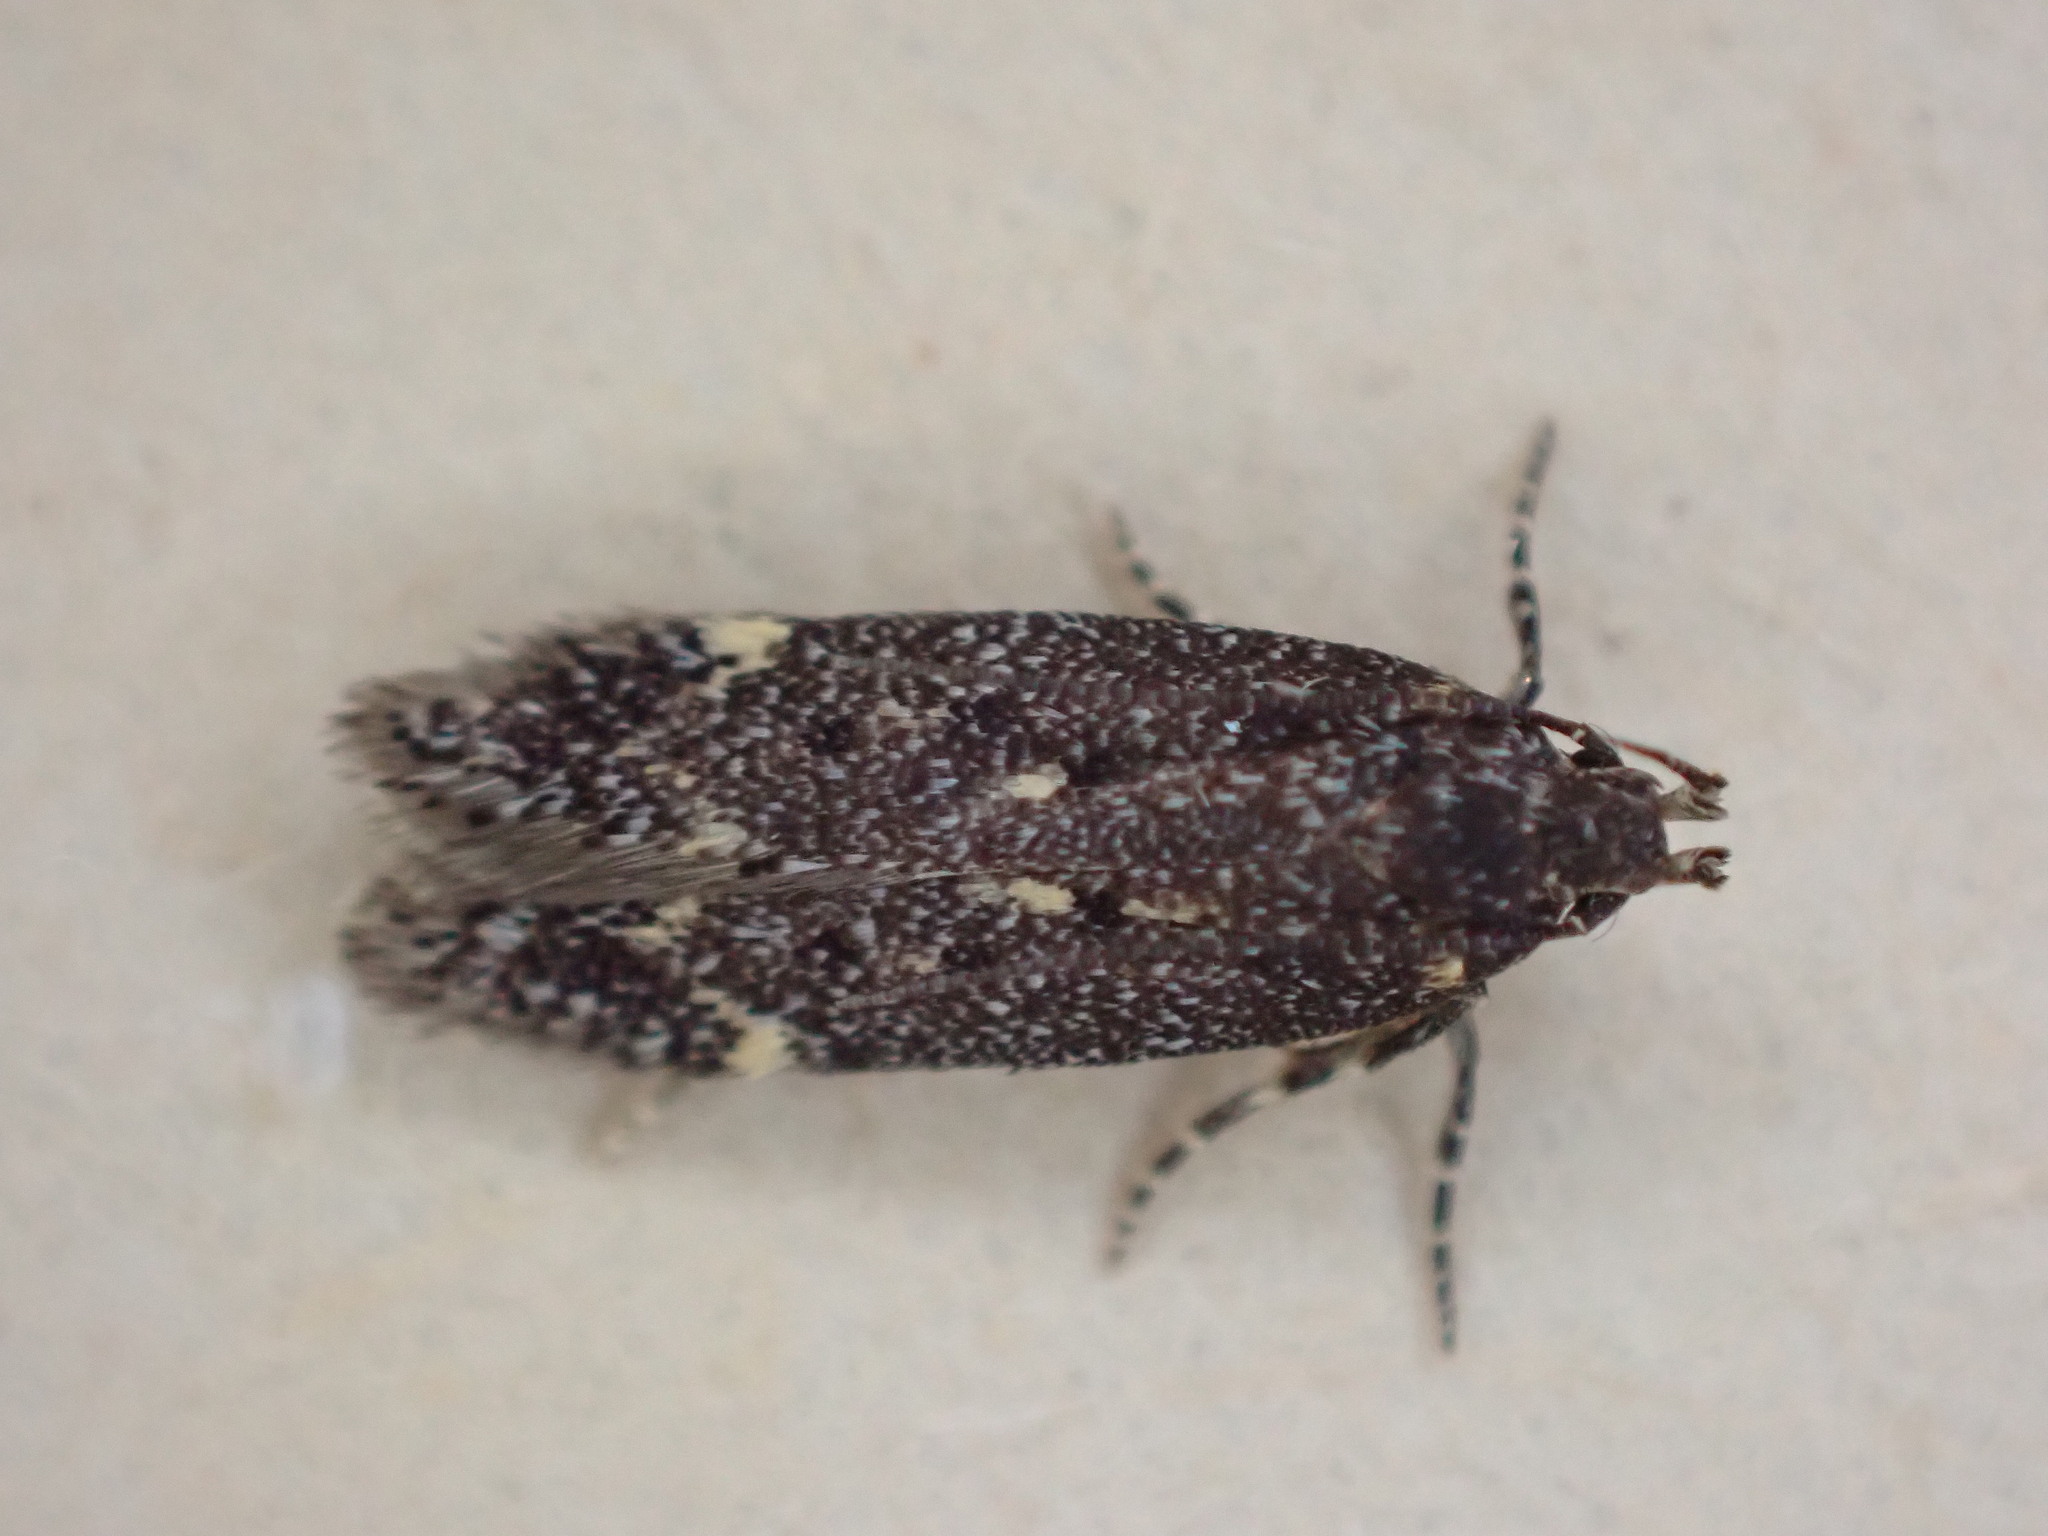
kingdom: Animalia
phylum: Arthropoda
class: Insecta
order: Lepidoptera
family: Gelechiidae
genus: Bryotropha
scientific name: Bryotropha affinis
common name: Dark groundling
